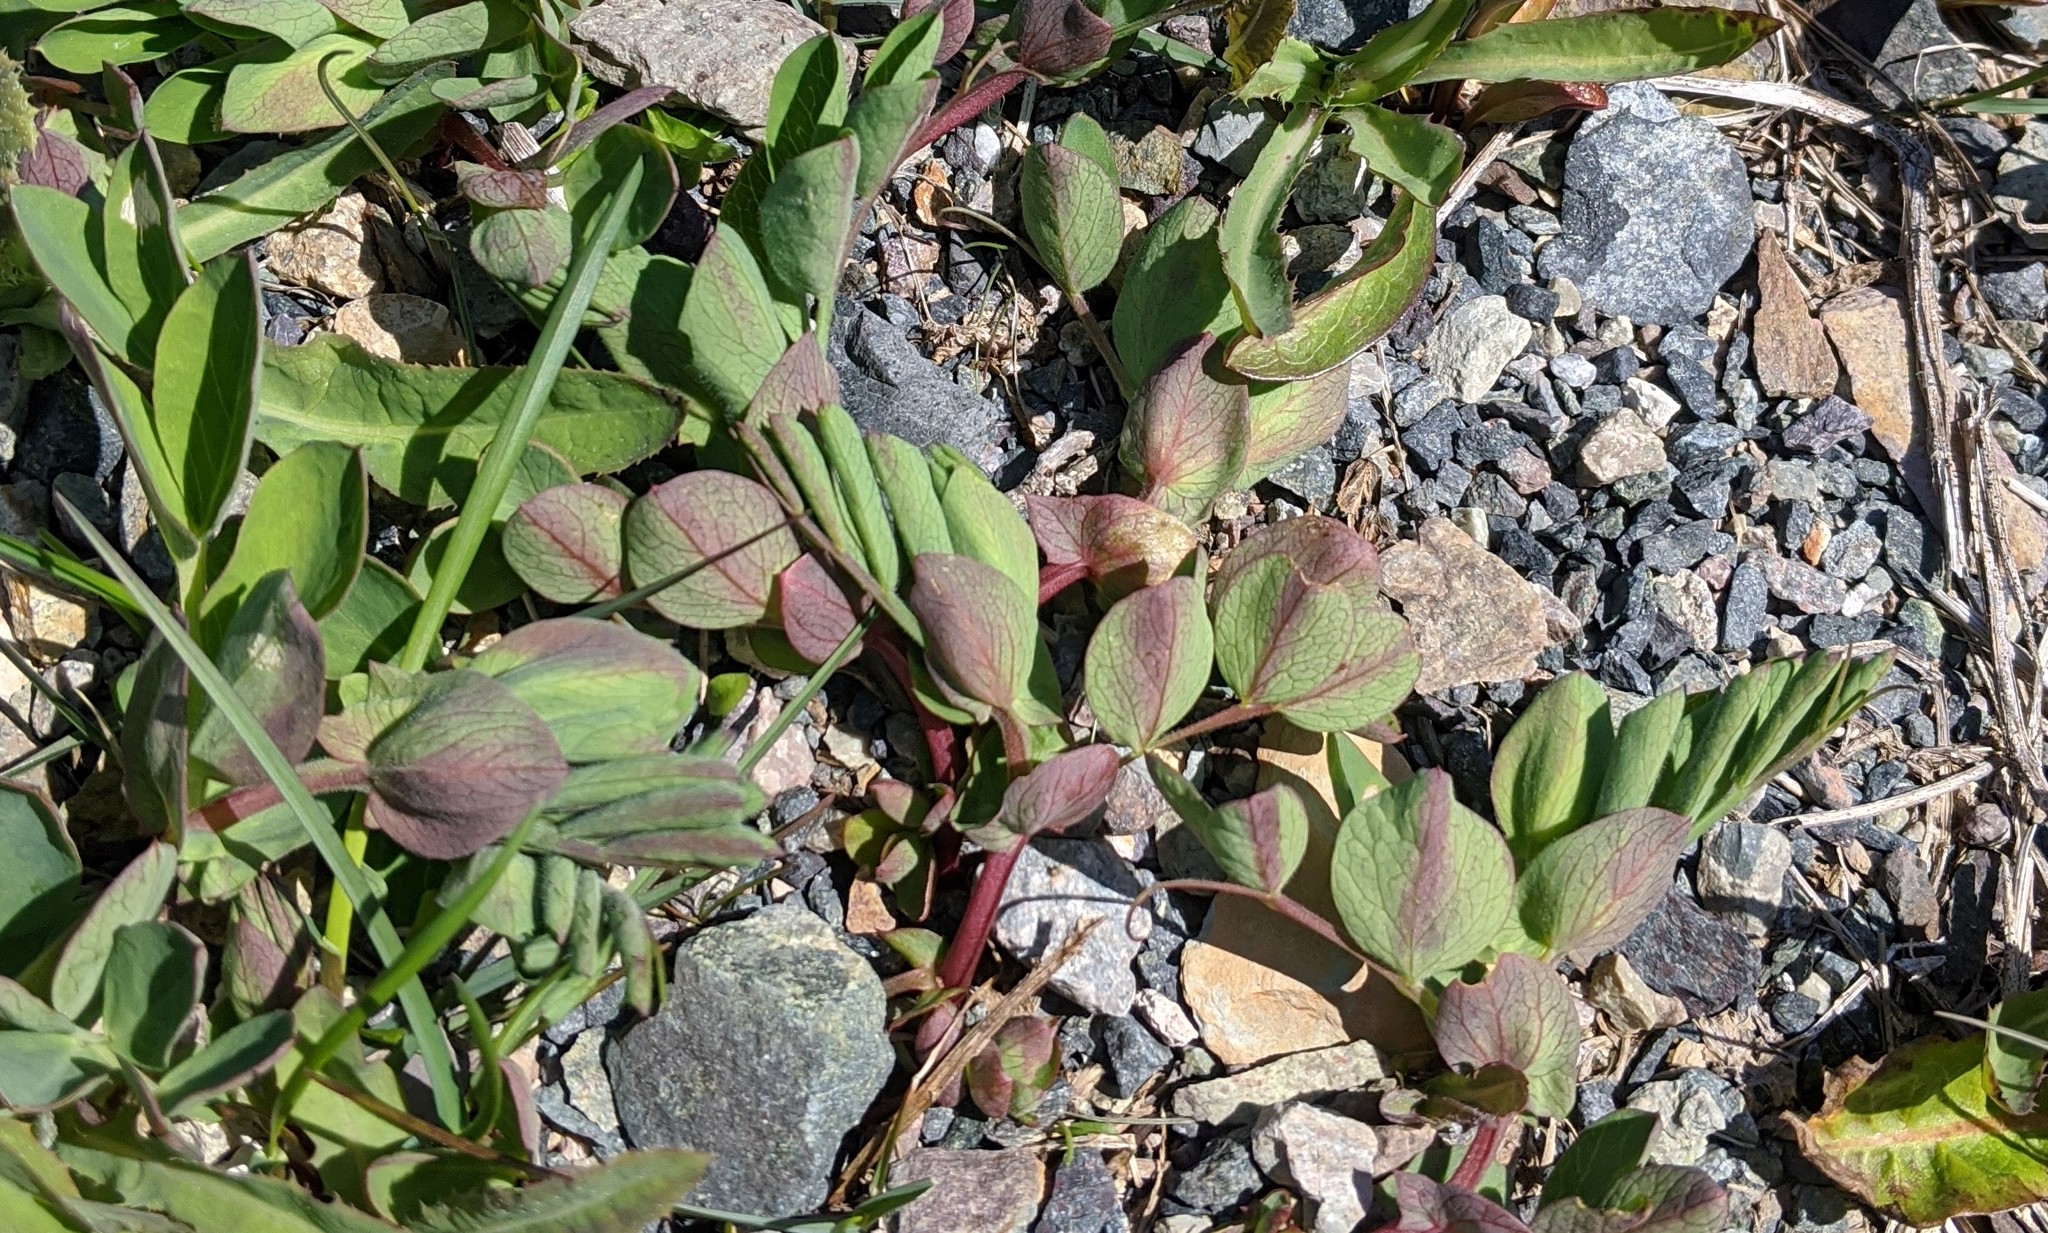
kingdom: Plantae
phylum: Tracheophyta
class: Magnoliopsida
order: Fabales
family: Fabaceae
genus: Lathyrus
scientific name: Lathyrus japonicus
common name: Sea pea
